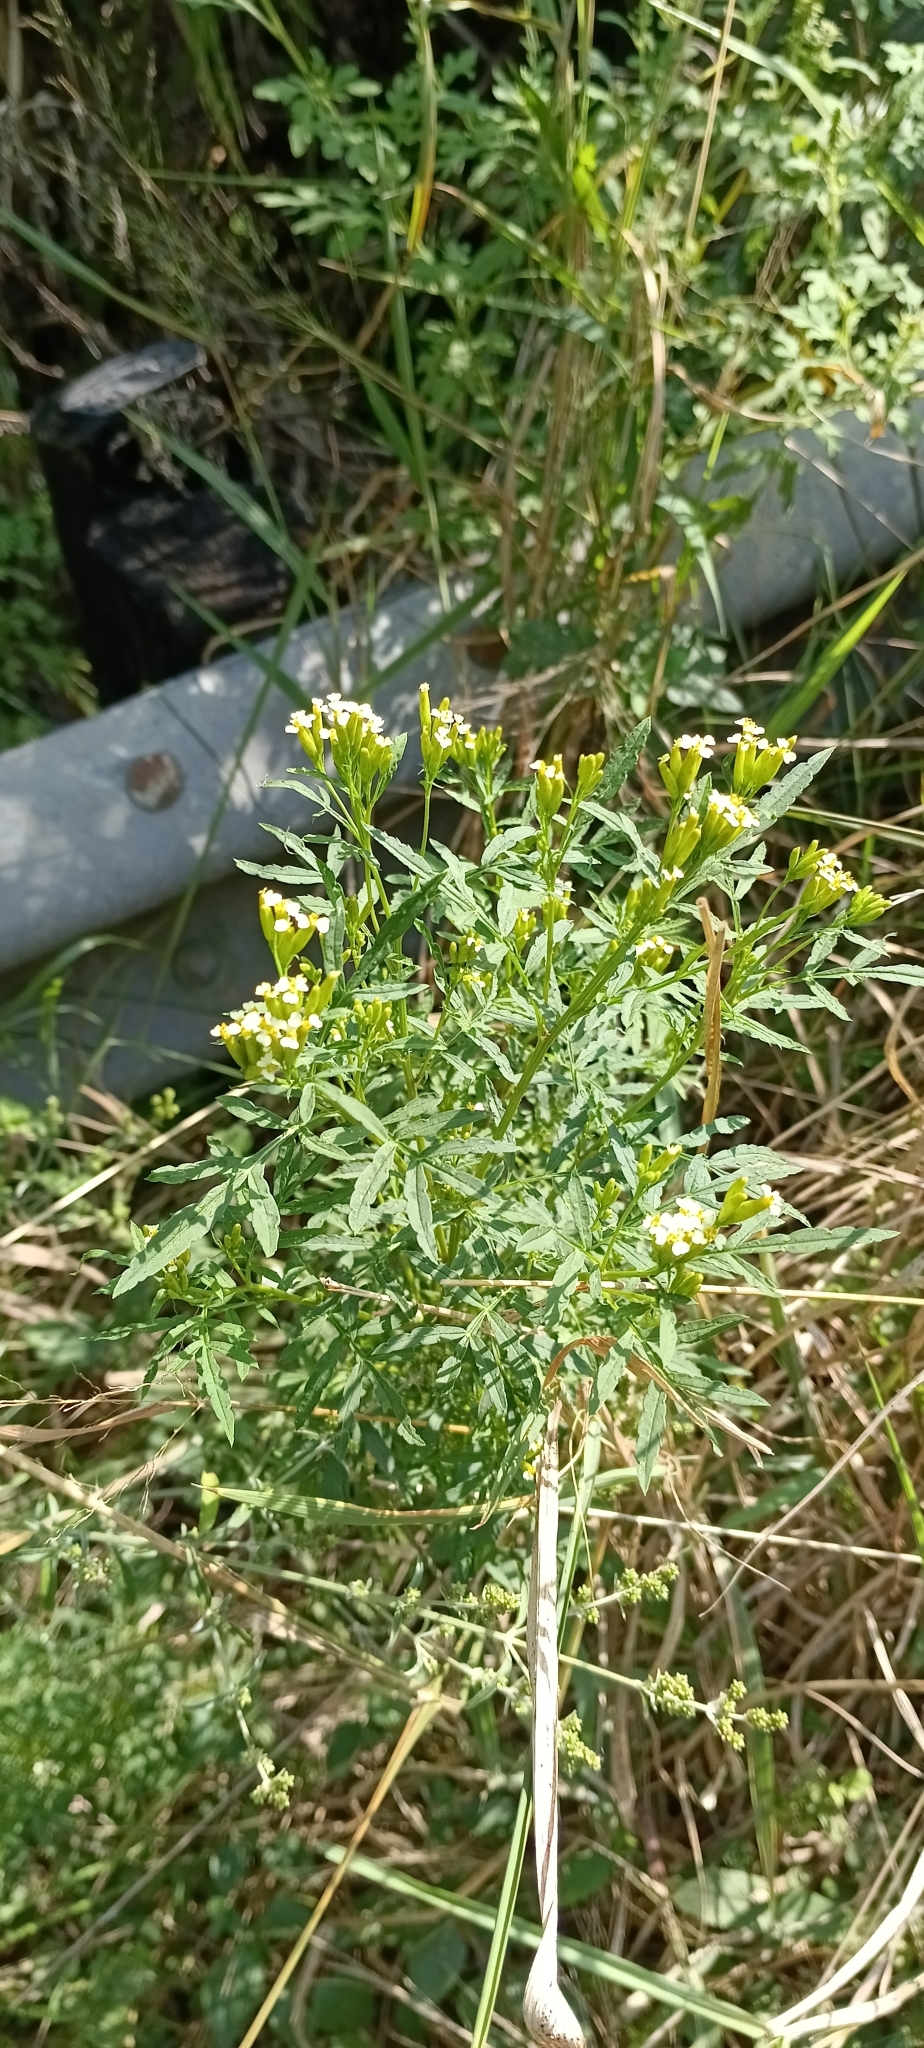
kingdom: Plantae
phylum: Tracheophyta
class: Magnoliopsida
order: Asterales
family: Asteraceae
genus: Tagetes
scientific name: Tagetes minuta
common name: Muster john henry
